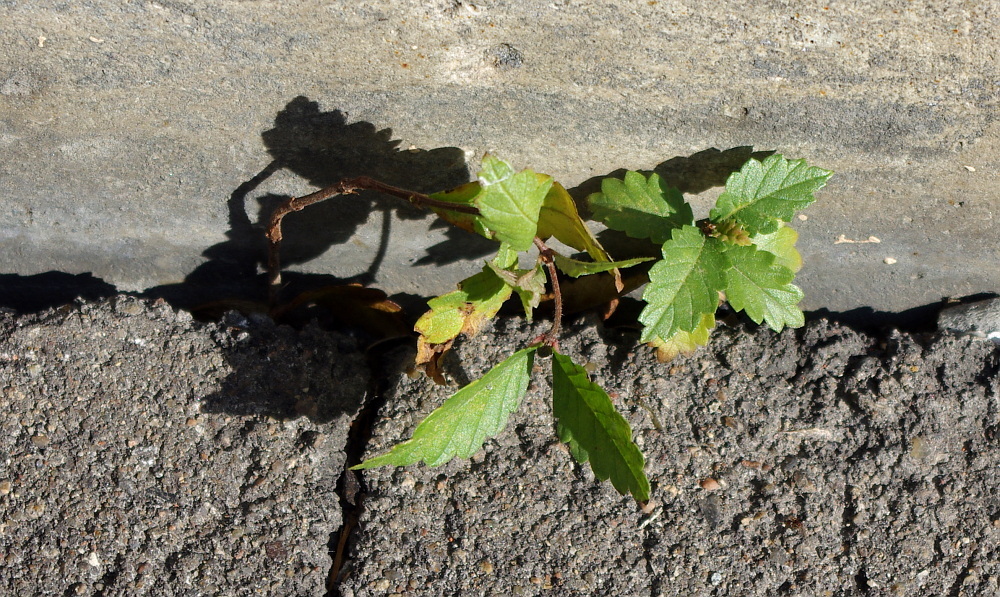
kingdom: Plantae
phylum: Tracheophyta
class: Magnoliopsida
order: Rosales
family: Ulmaceae
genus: Ulmus
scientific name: Ulmus pumila
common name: Siberian elm
